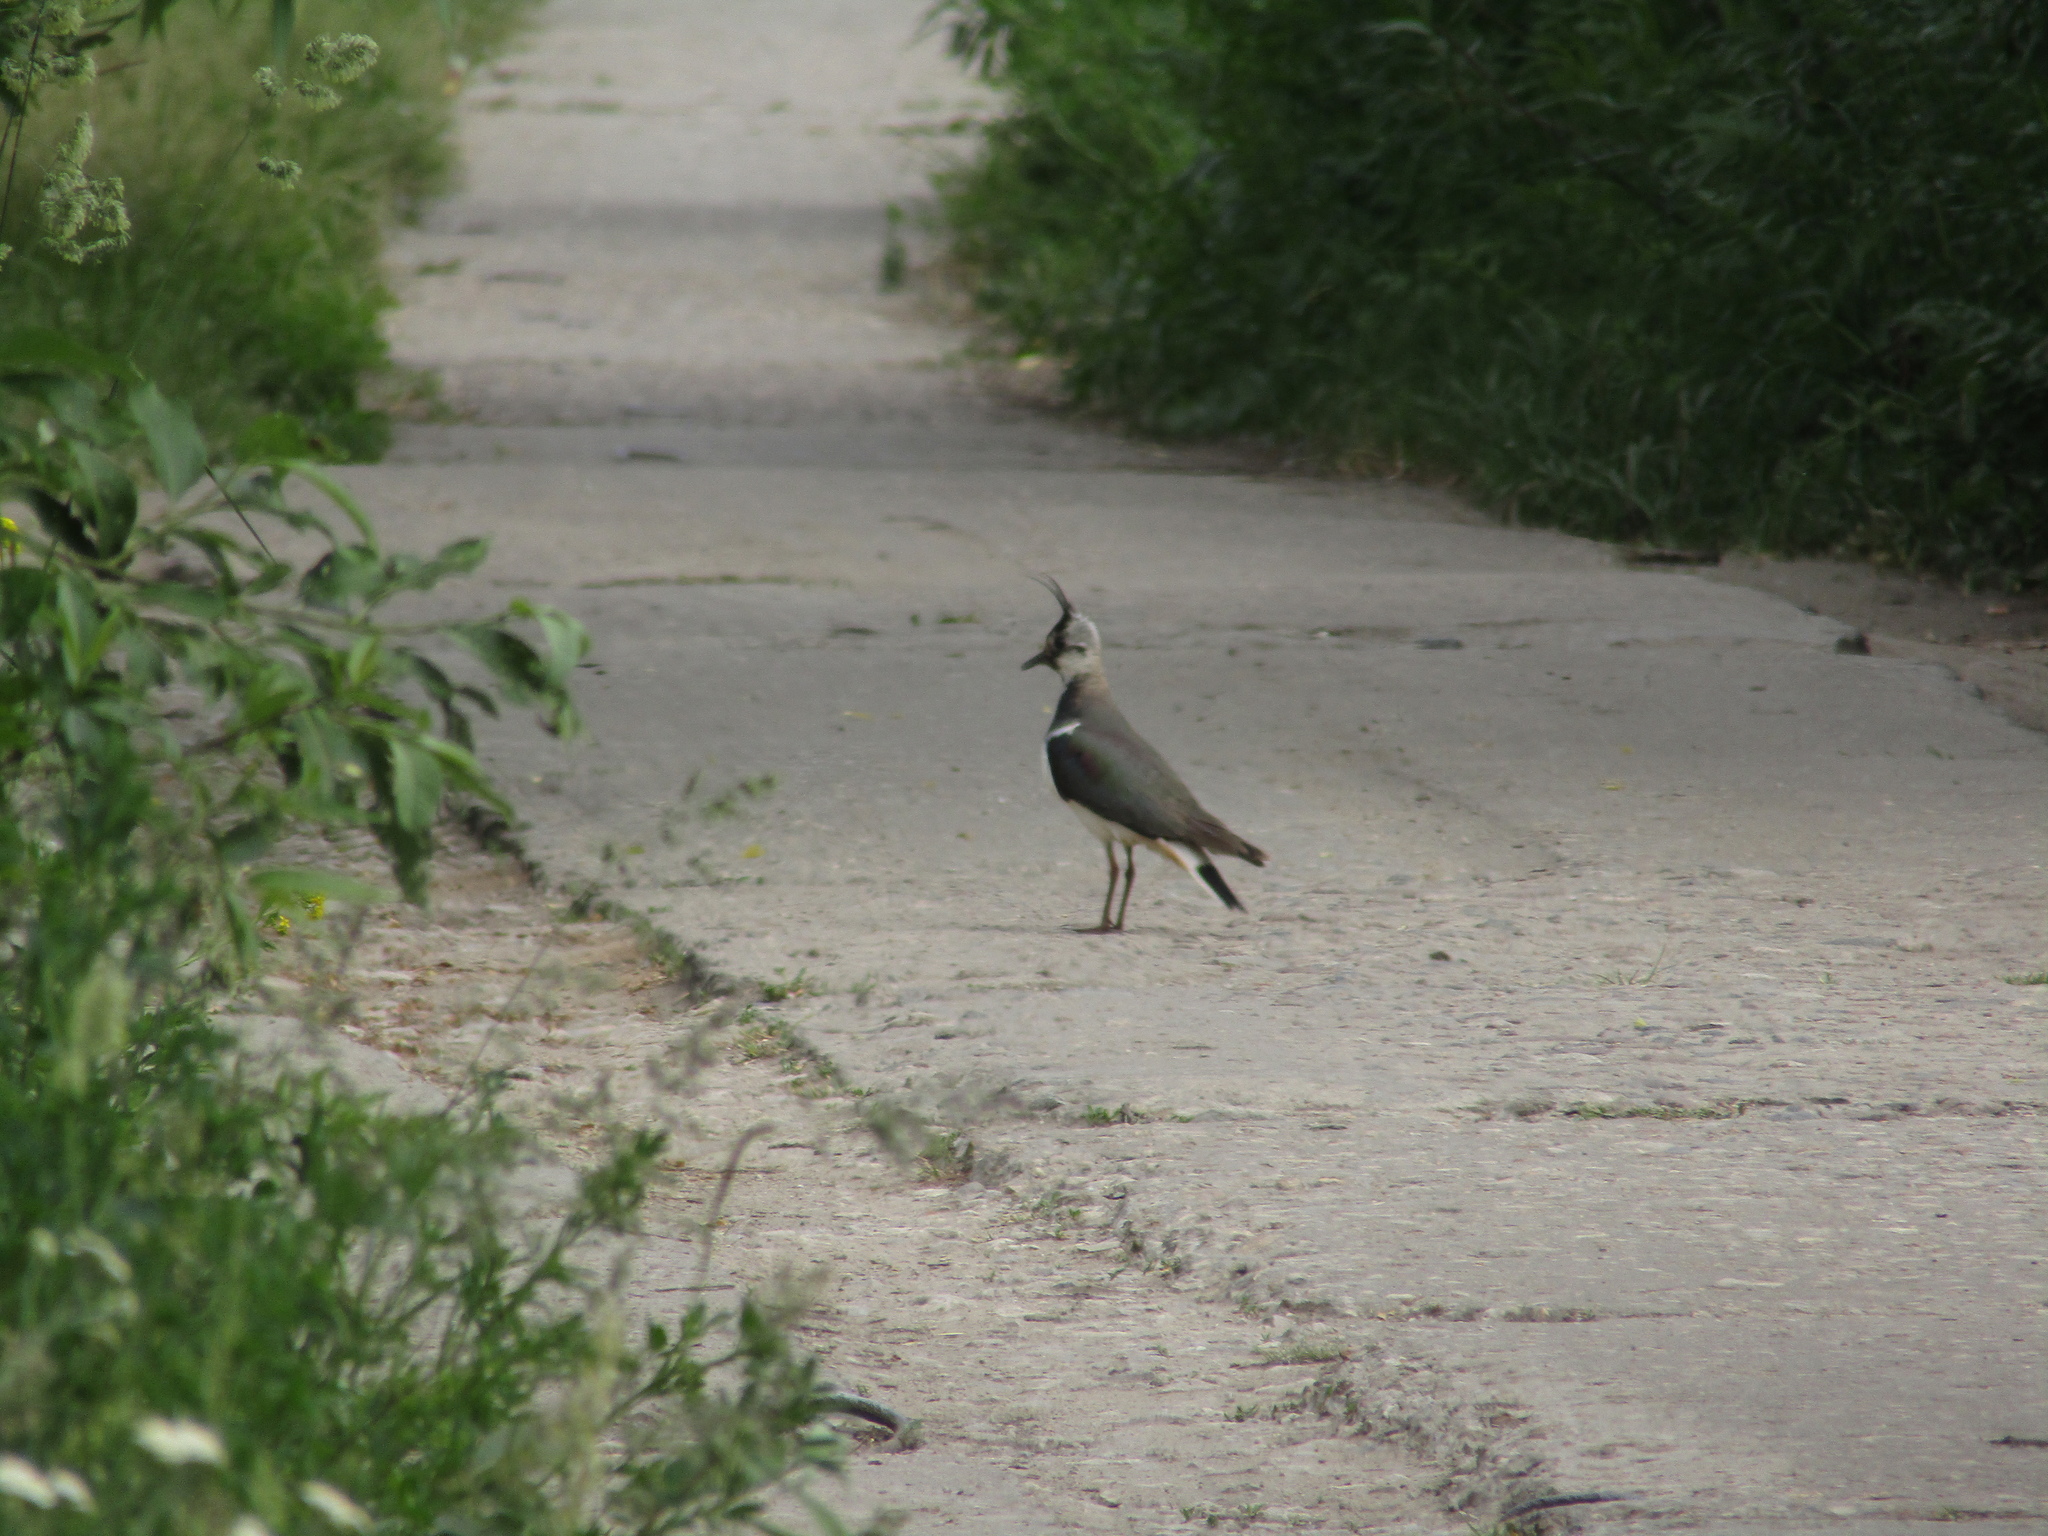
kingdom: Animalia
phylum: Chordata
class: Aves
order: Charadriiformes
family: Charadriidae
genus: Vanellus
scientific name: Vanellus vanellus
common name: Northern lapwing
